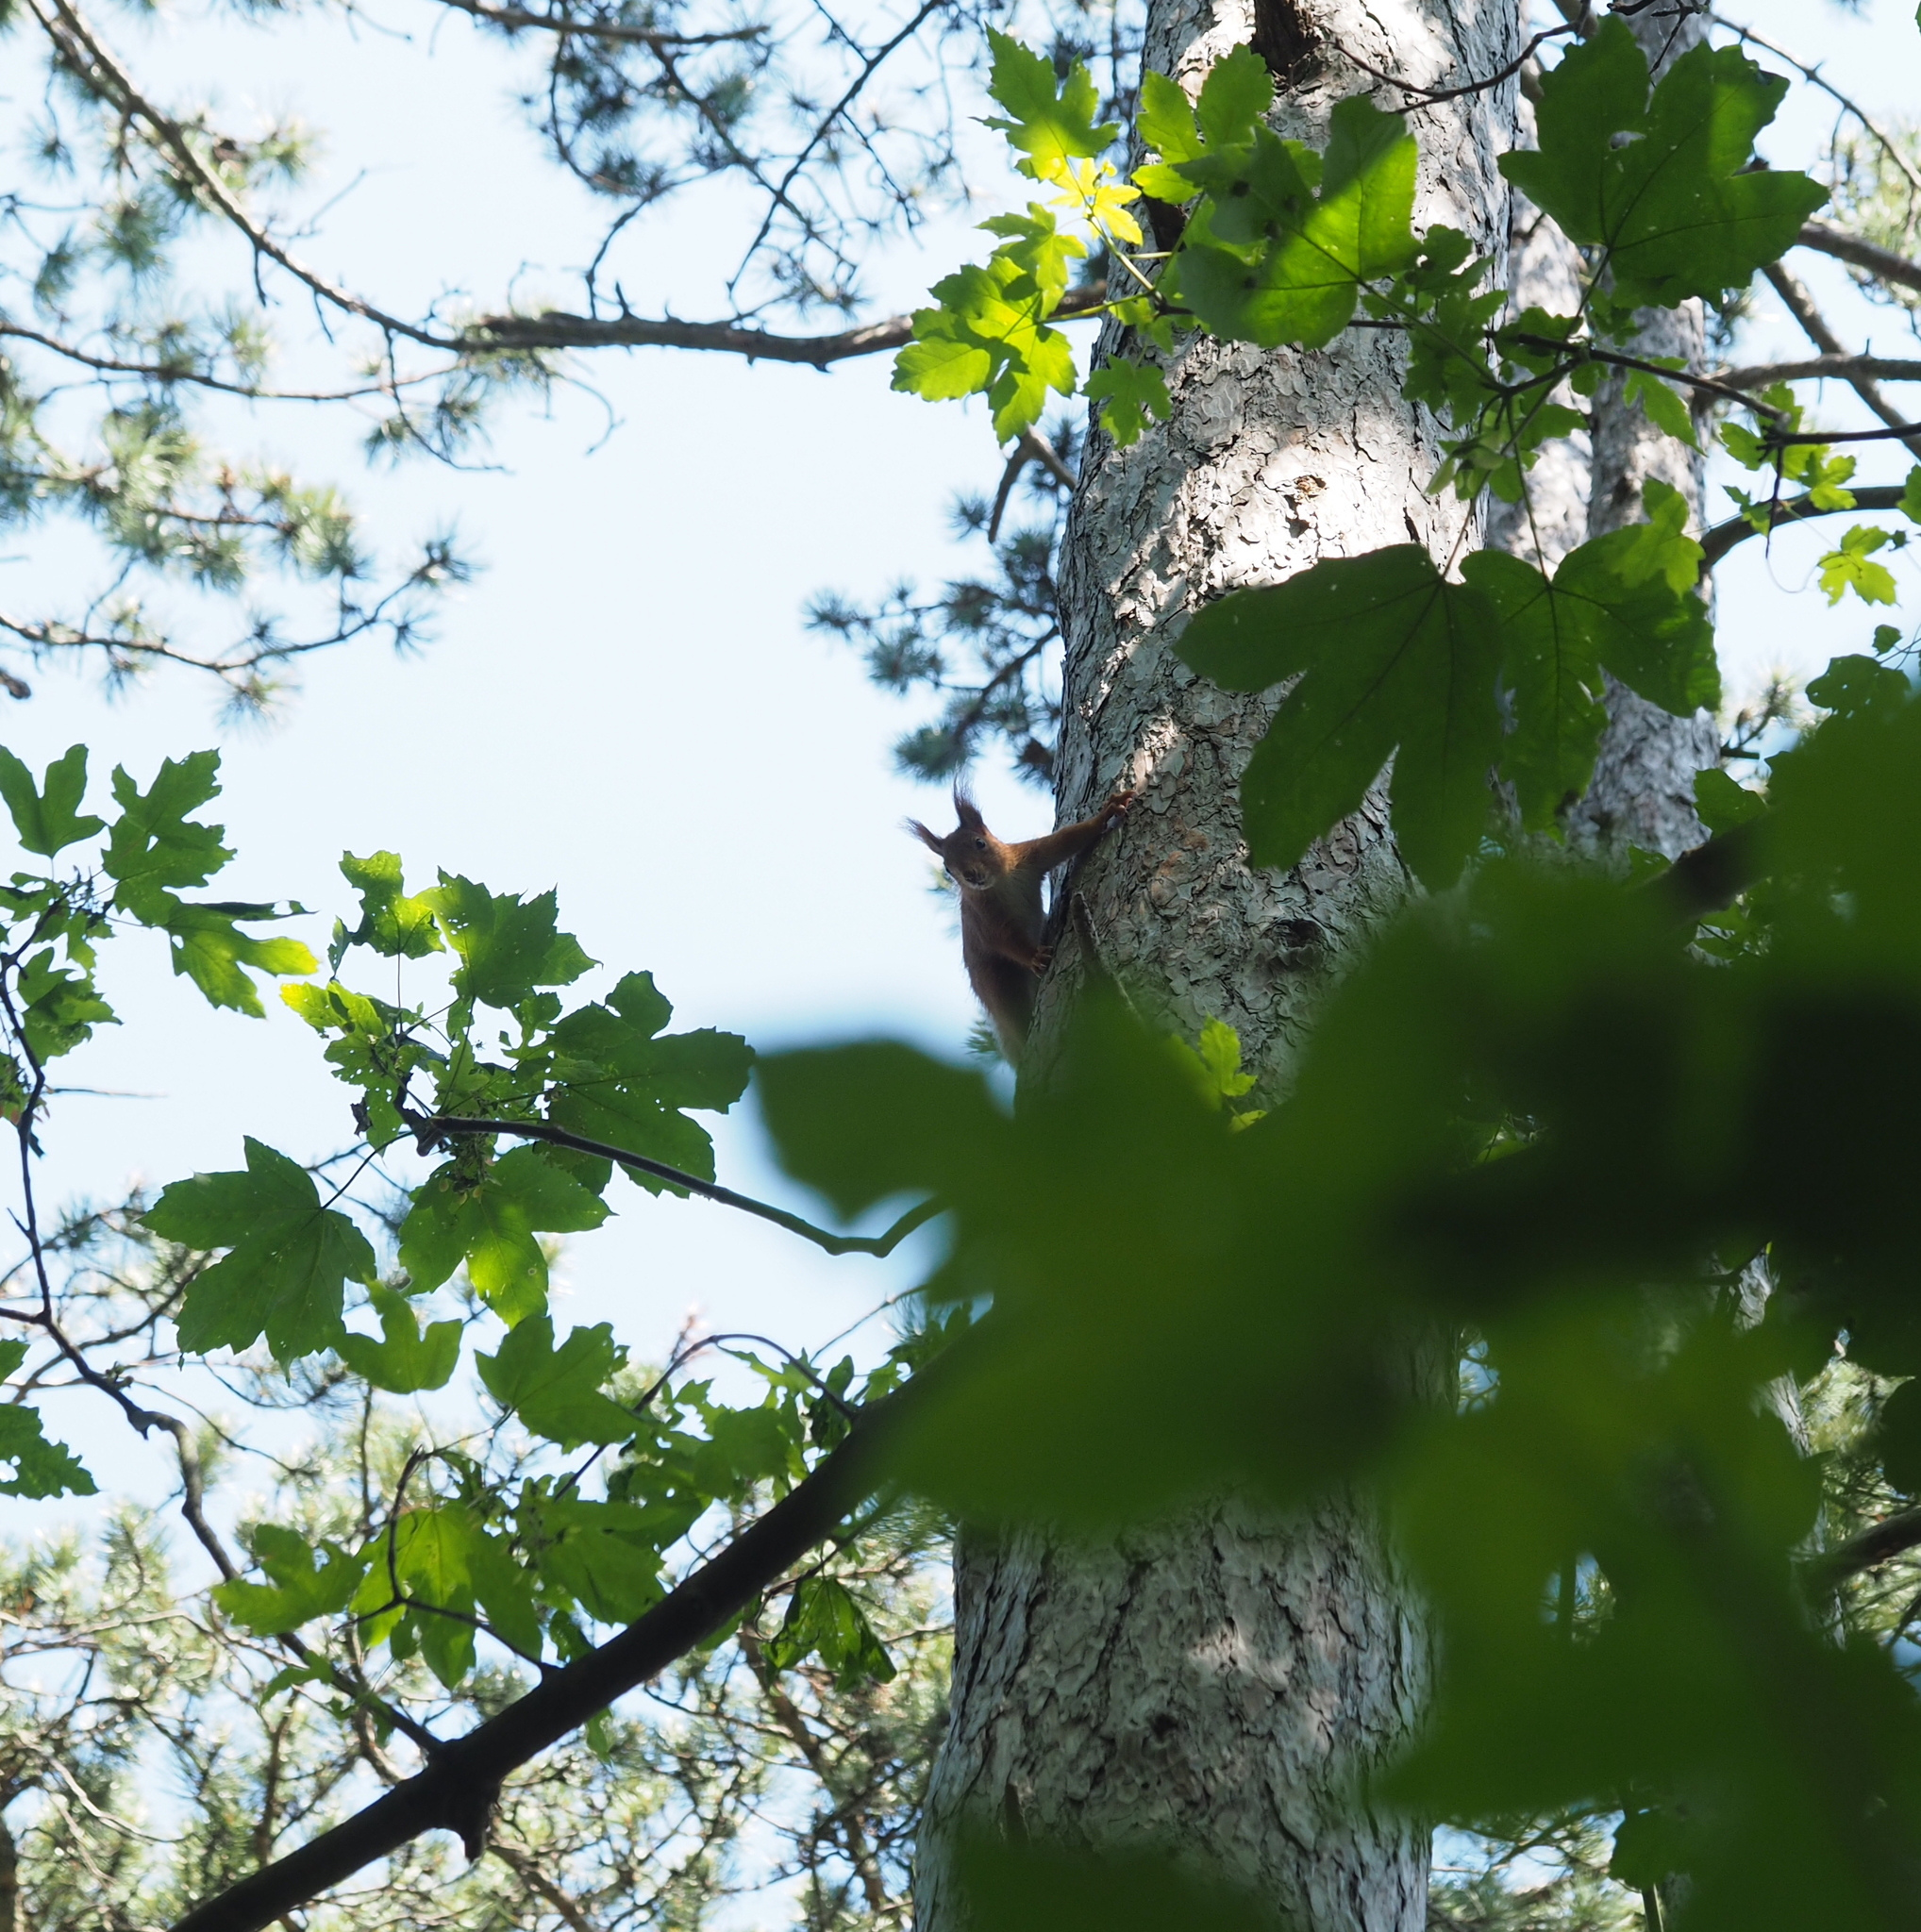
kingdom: Animalia
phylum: Chordata
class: Mammalia
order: Rodentia
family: Sciuridae
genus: Sciurus
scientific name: Sciurus vulgaris
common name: Eurasian red squirrel
